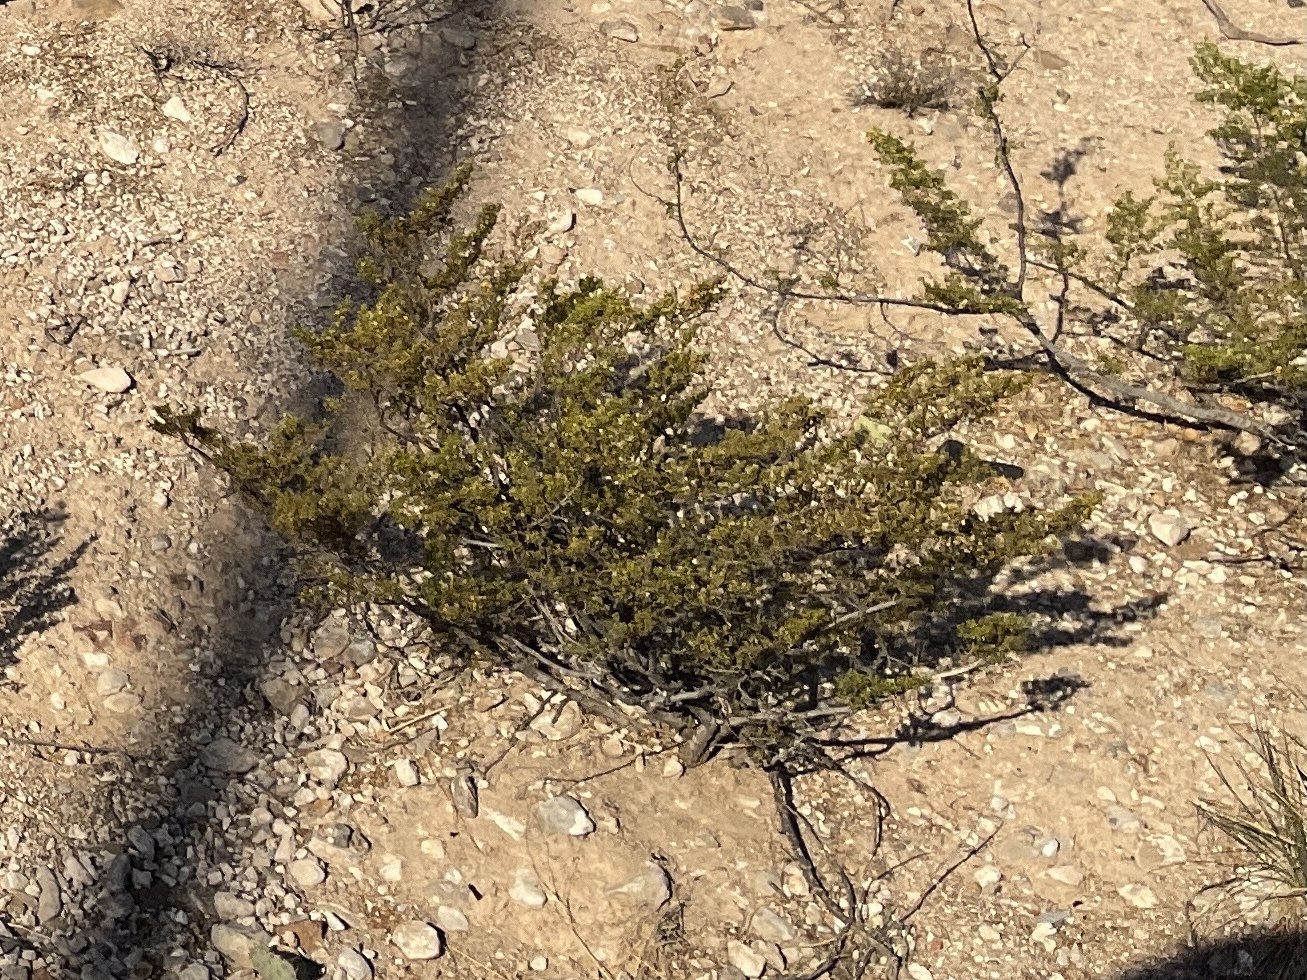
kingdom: Plantae
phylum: Tracheophyta
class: Magnoliopsida
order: Zygophyllales
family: Zygophyllaceae
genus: Larrea
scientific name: Larrea tridentata
